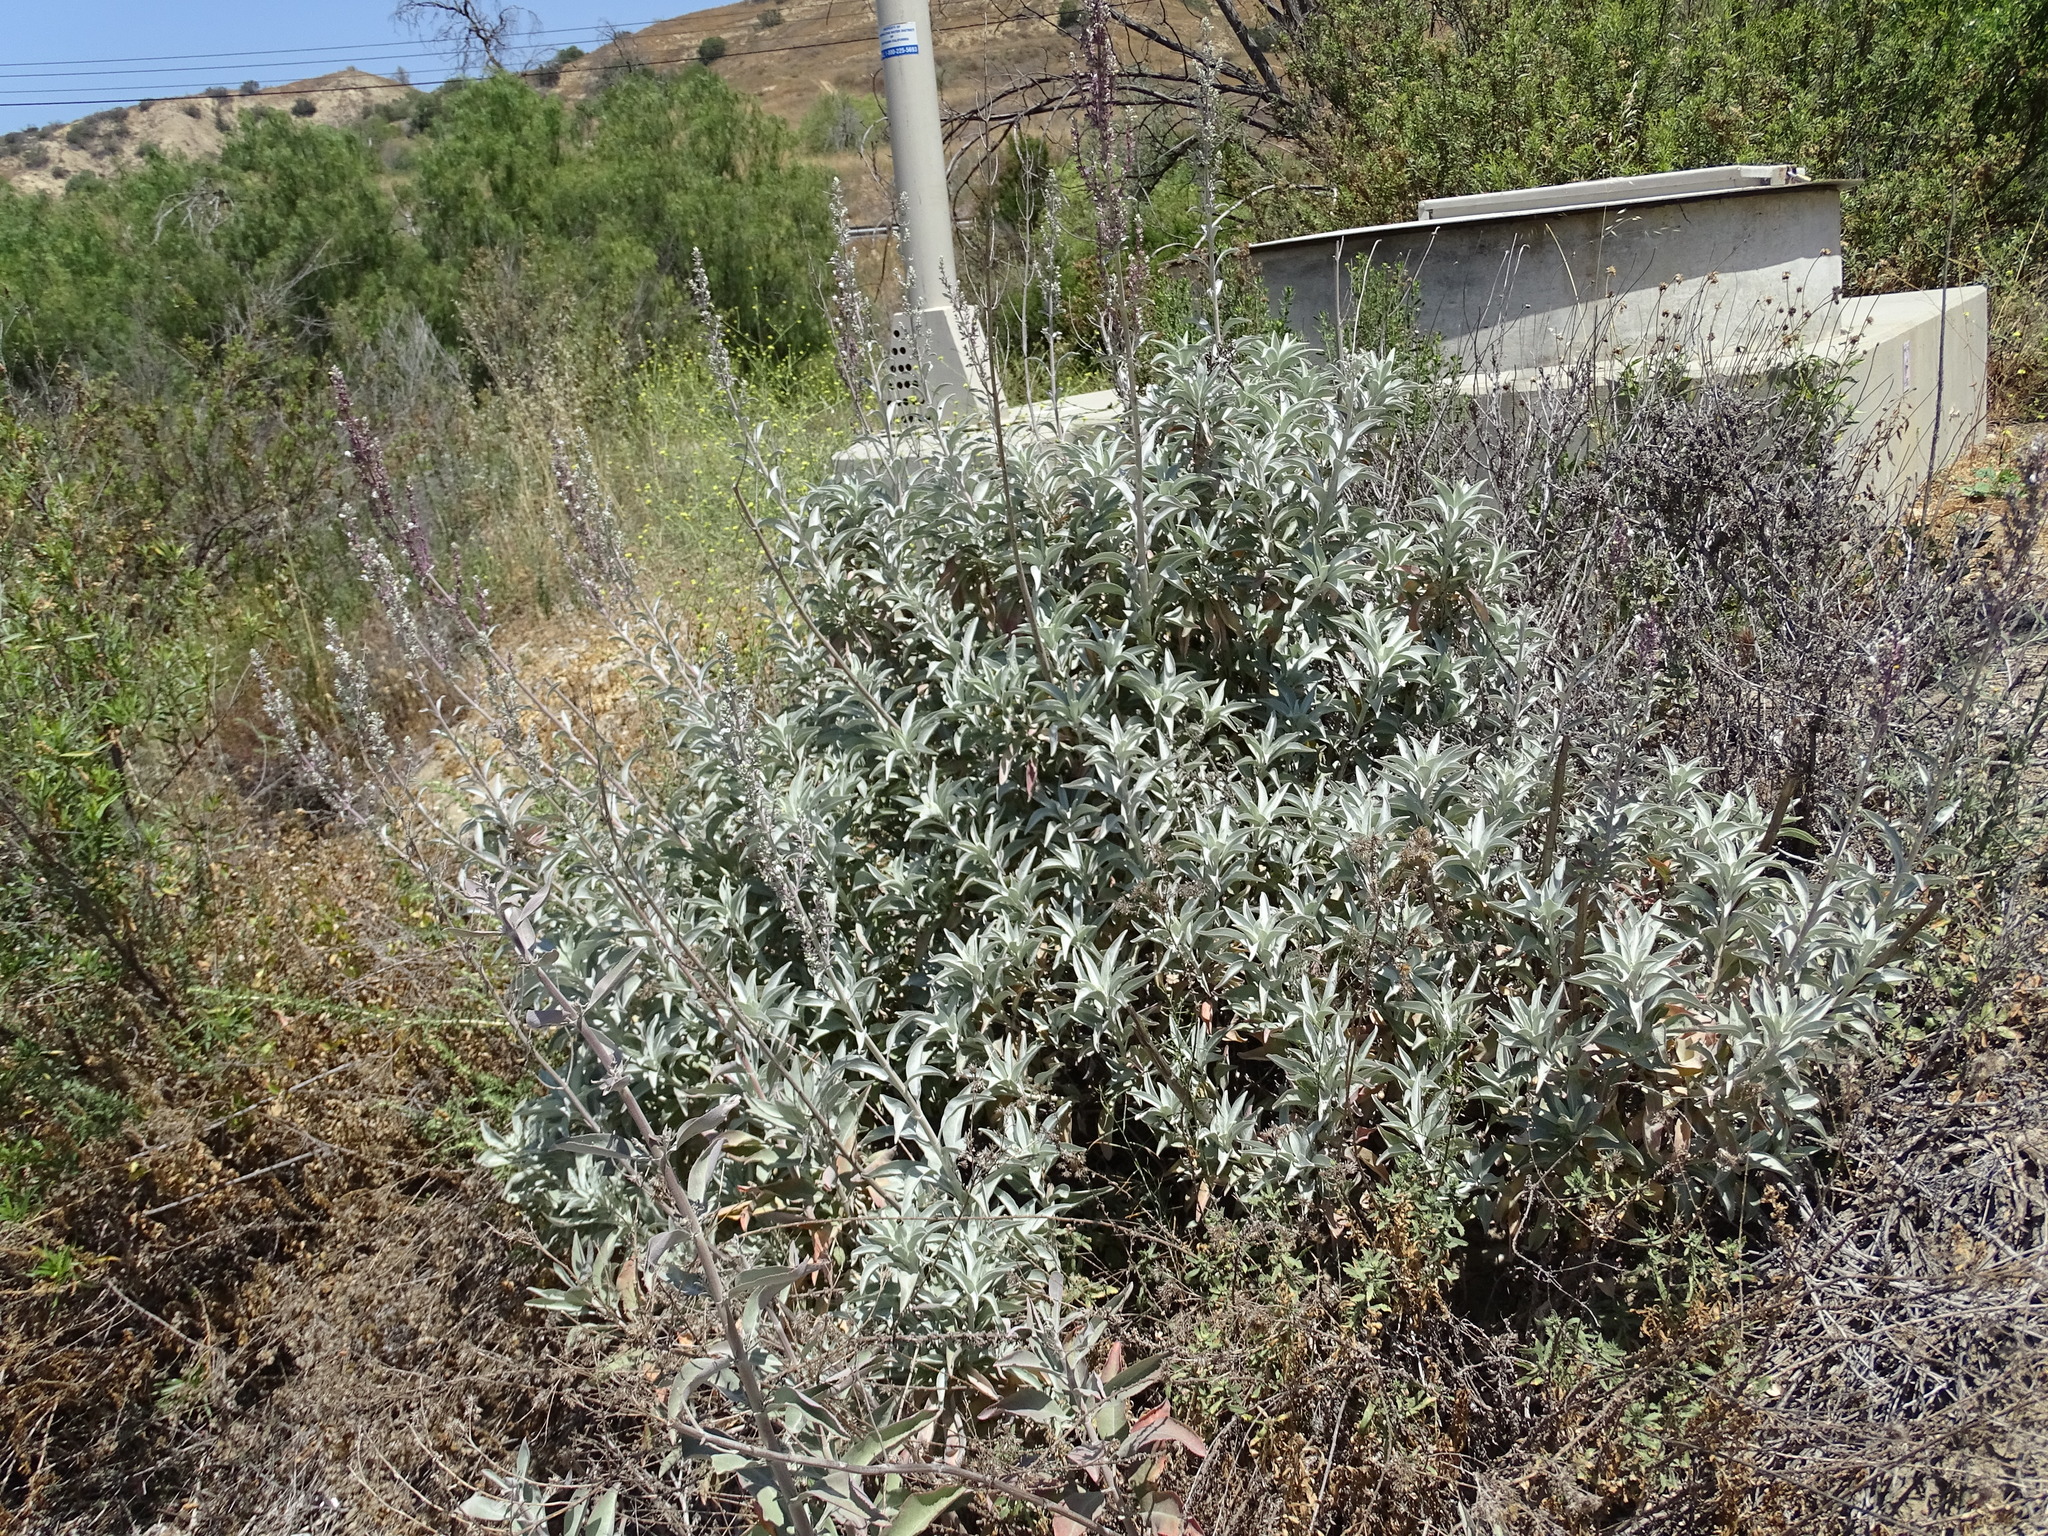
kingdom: Plantae
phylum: Tracheophyta
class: Magnoliopsida
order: Lamiales
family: Lamiaceae
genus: Salvia
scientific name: Salvia apiana
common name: White sage
